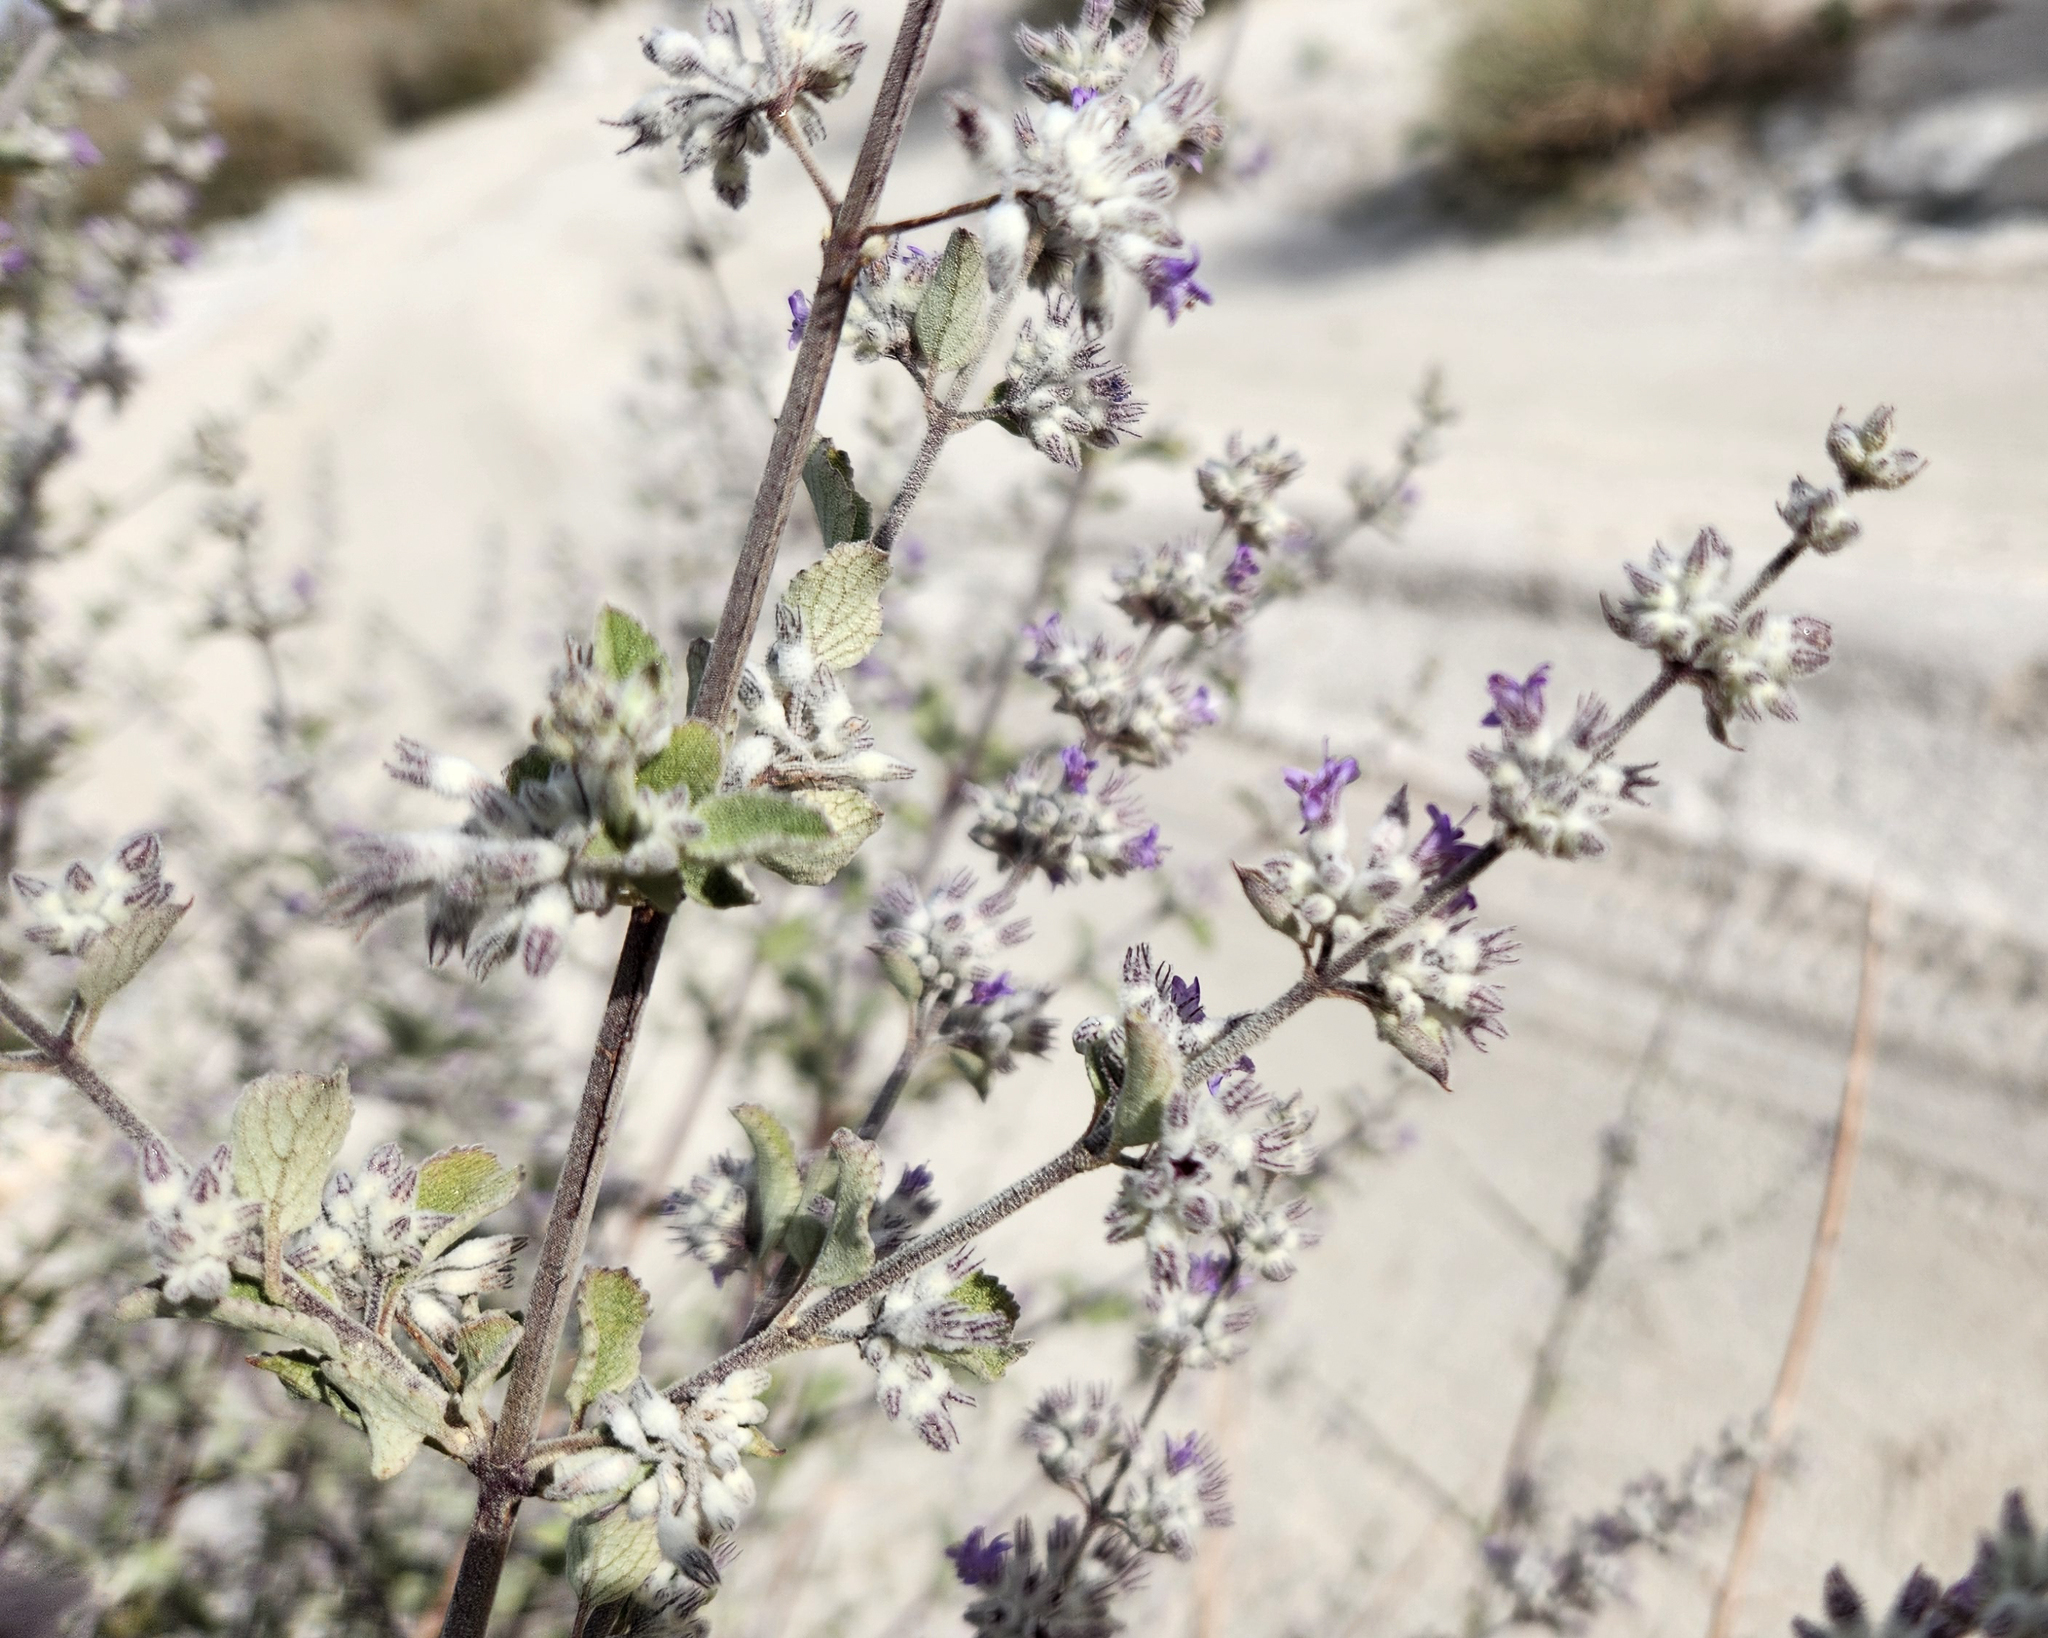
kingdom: Plantae
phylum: Tracheophyta
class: Magnoliopsida
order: Lamiales
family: Lamiaceae
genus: Condea
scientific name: Condea emoryi
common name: Chia
